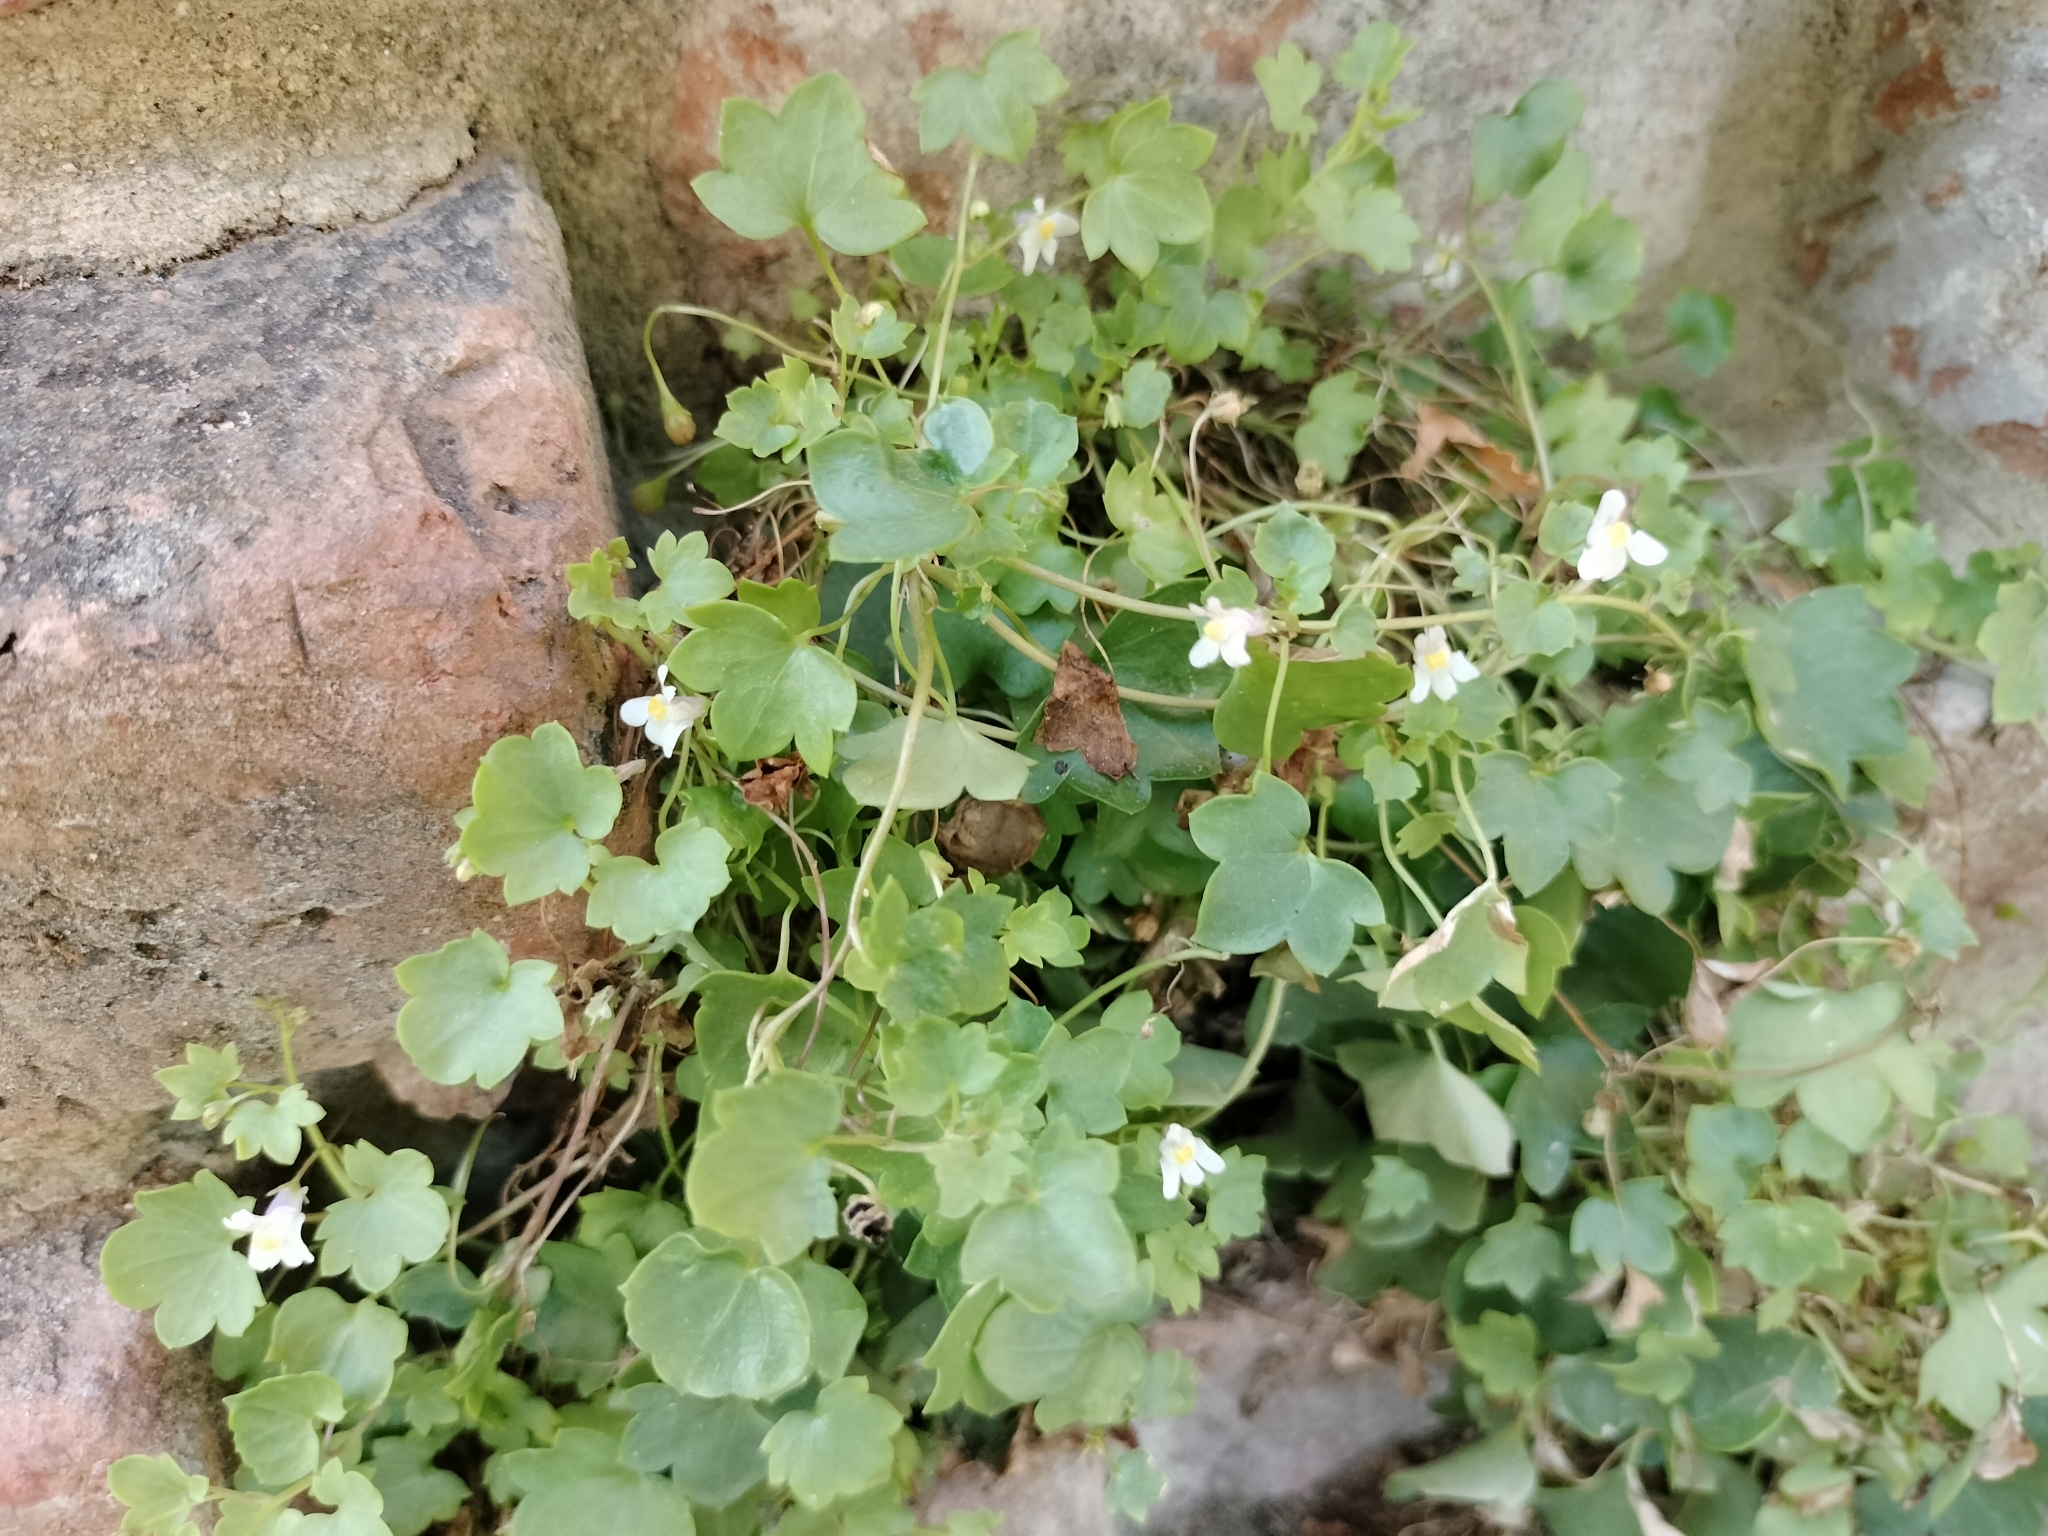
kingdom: Plantae
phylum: Tracheophyta
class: Magnoliopsida
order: Lamiales
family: Plantaginaceae
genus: Cymbalaria
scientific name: Cymbalaria muralis
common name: Ivy-leaved toadflax
